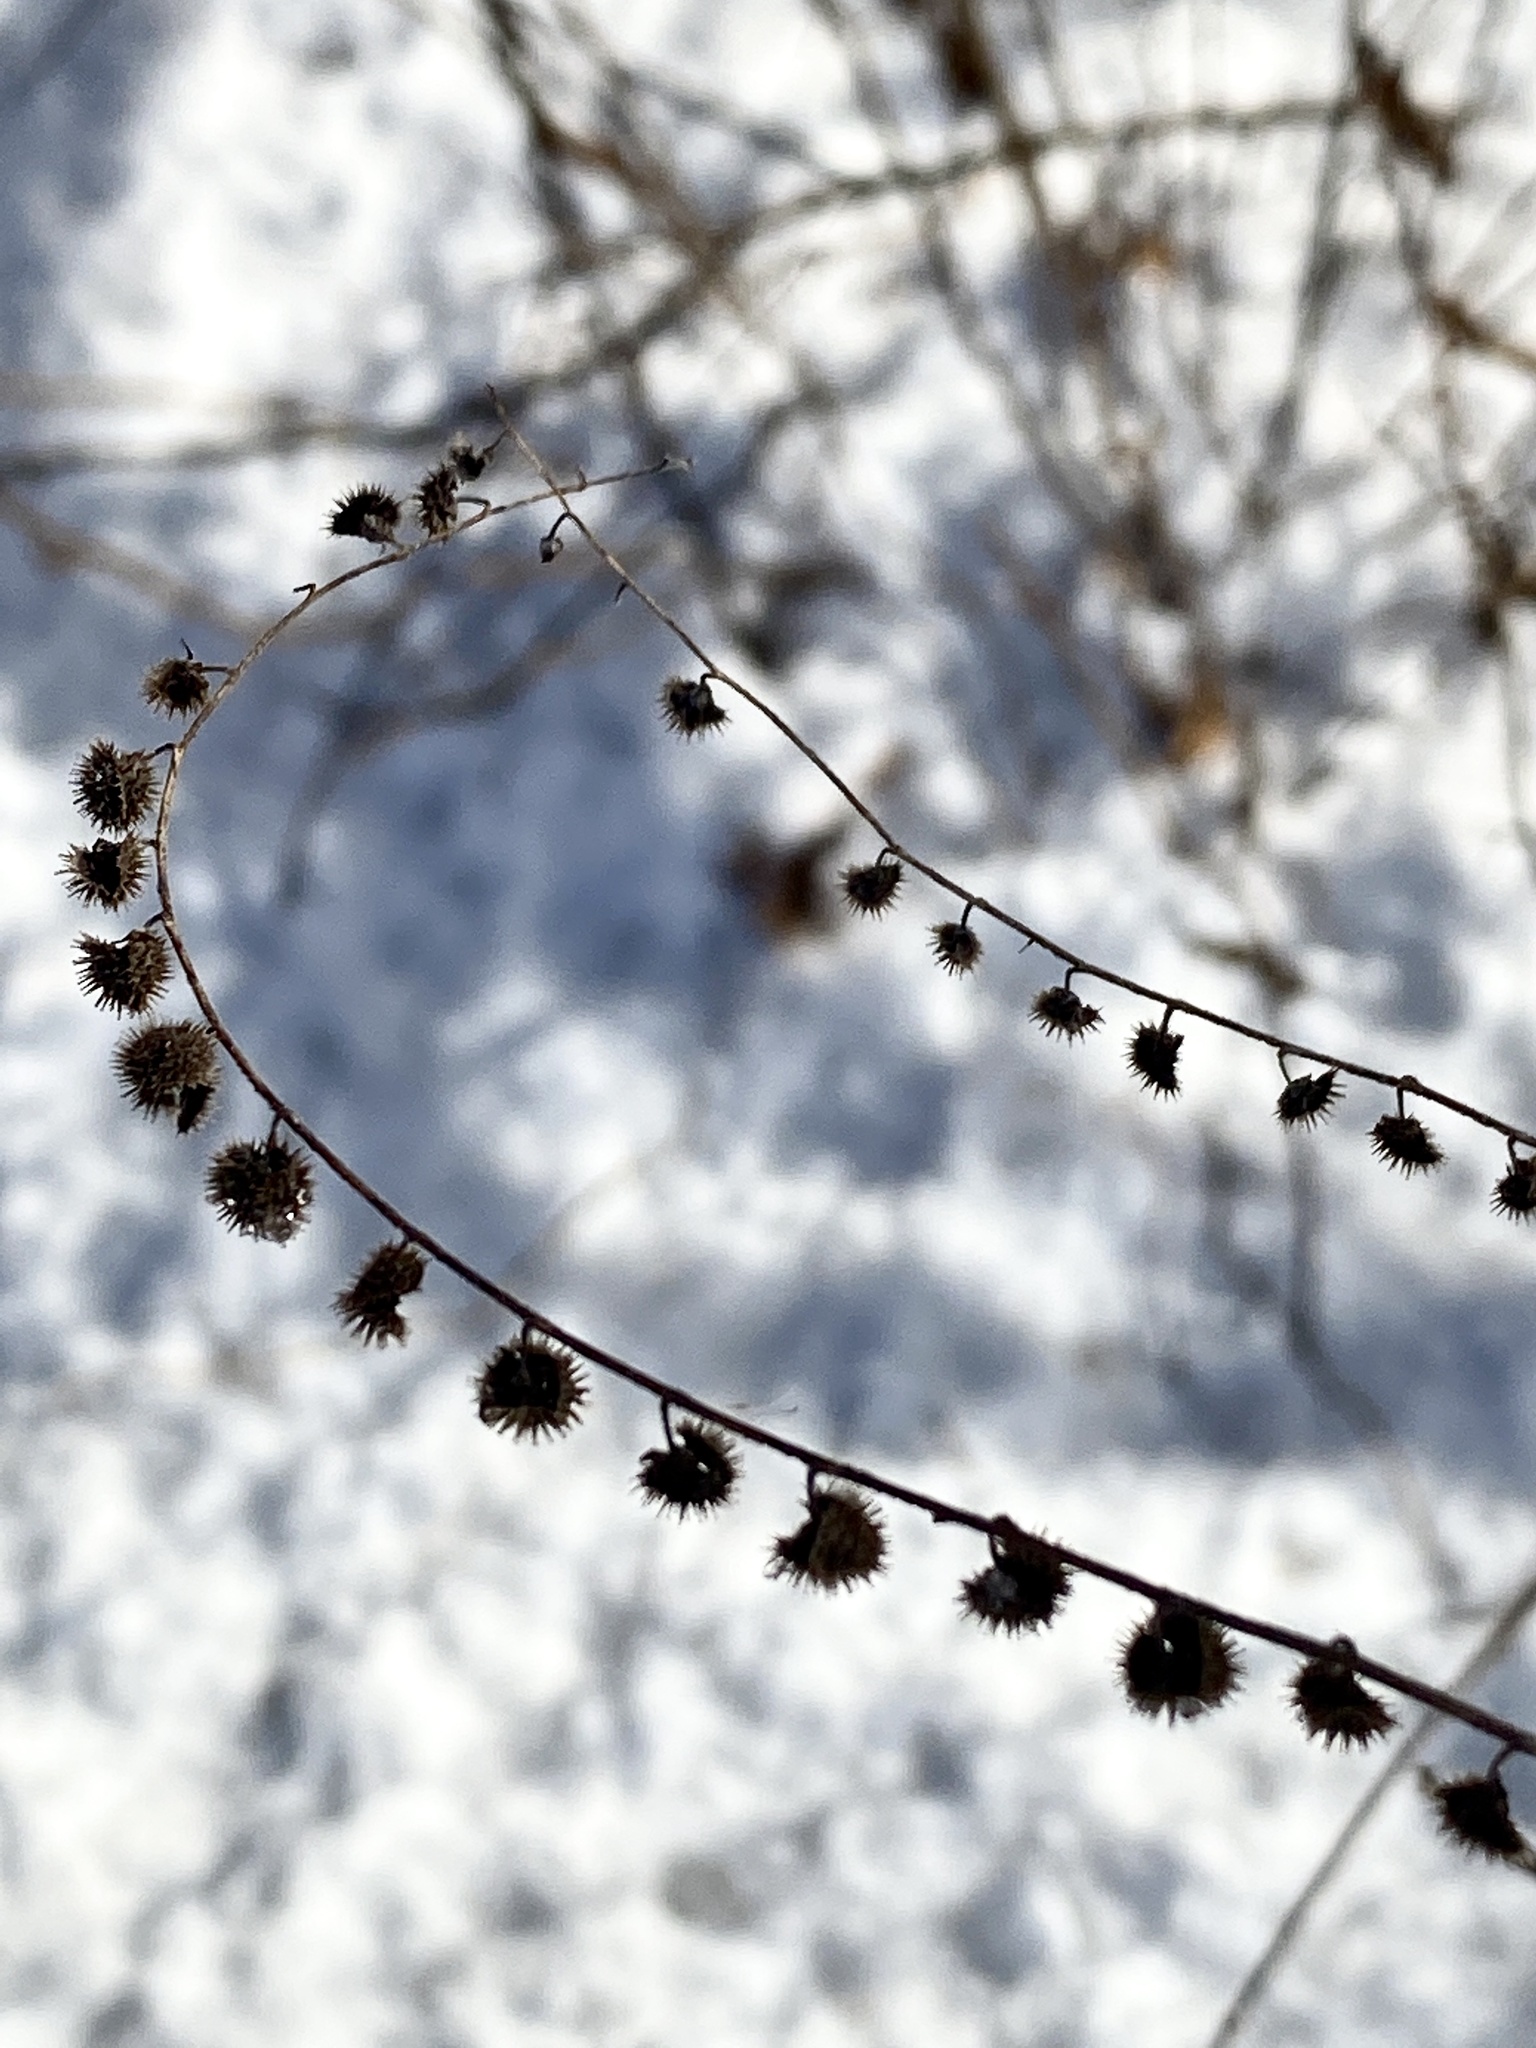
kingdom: Plantae
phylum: Tracheophyta
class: Magnoliopsida
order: Boraginales
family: Boraginaceae
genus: Hackelia
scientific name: Hackelia virginiana
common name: Beggar's-lice
